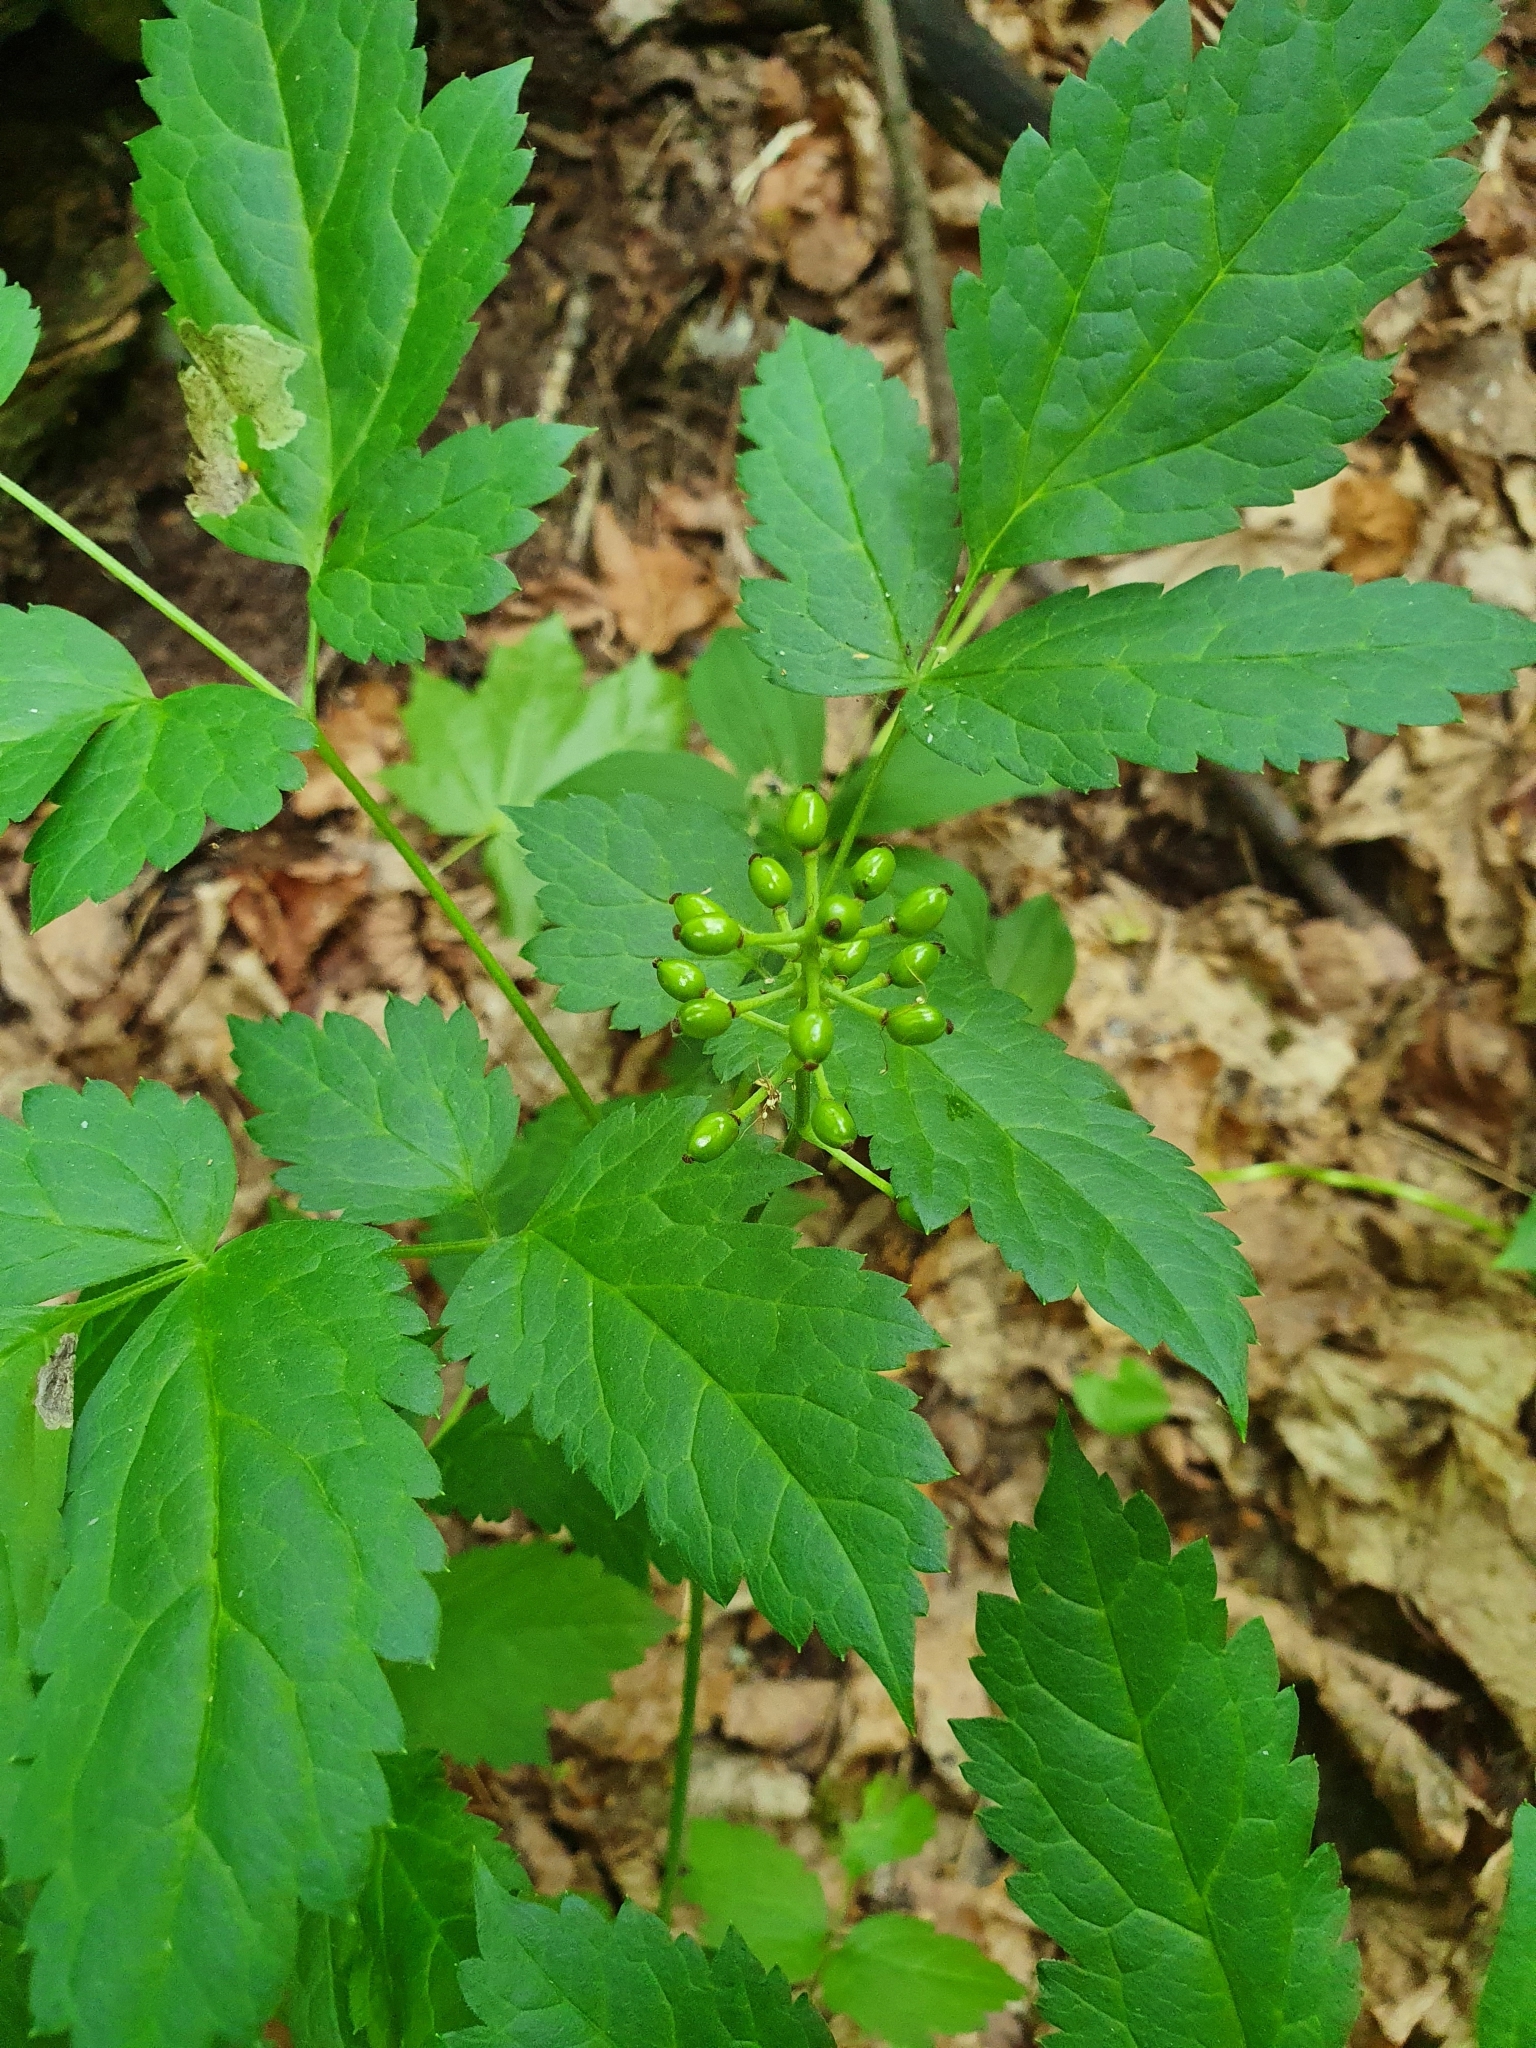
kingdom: Plantae
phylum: Tracheophyta
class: Magnoliopsida
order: Ranunculales
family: Ranunculaceae
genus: Actaea
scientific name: Actaea spicata
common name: Baneberry
